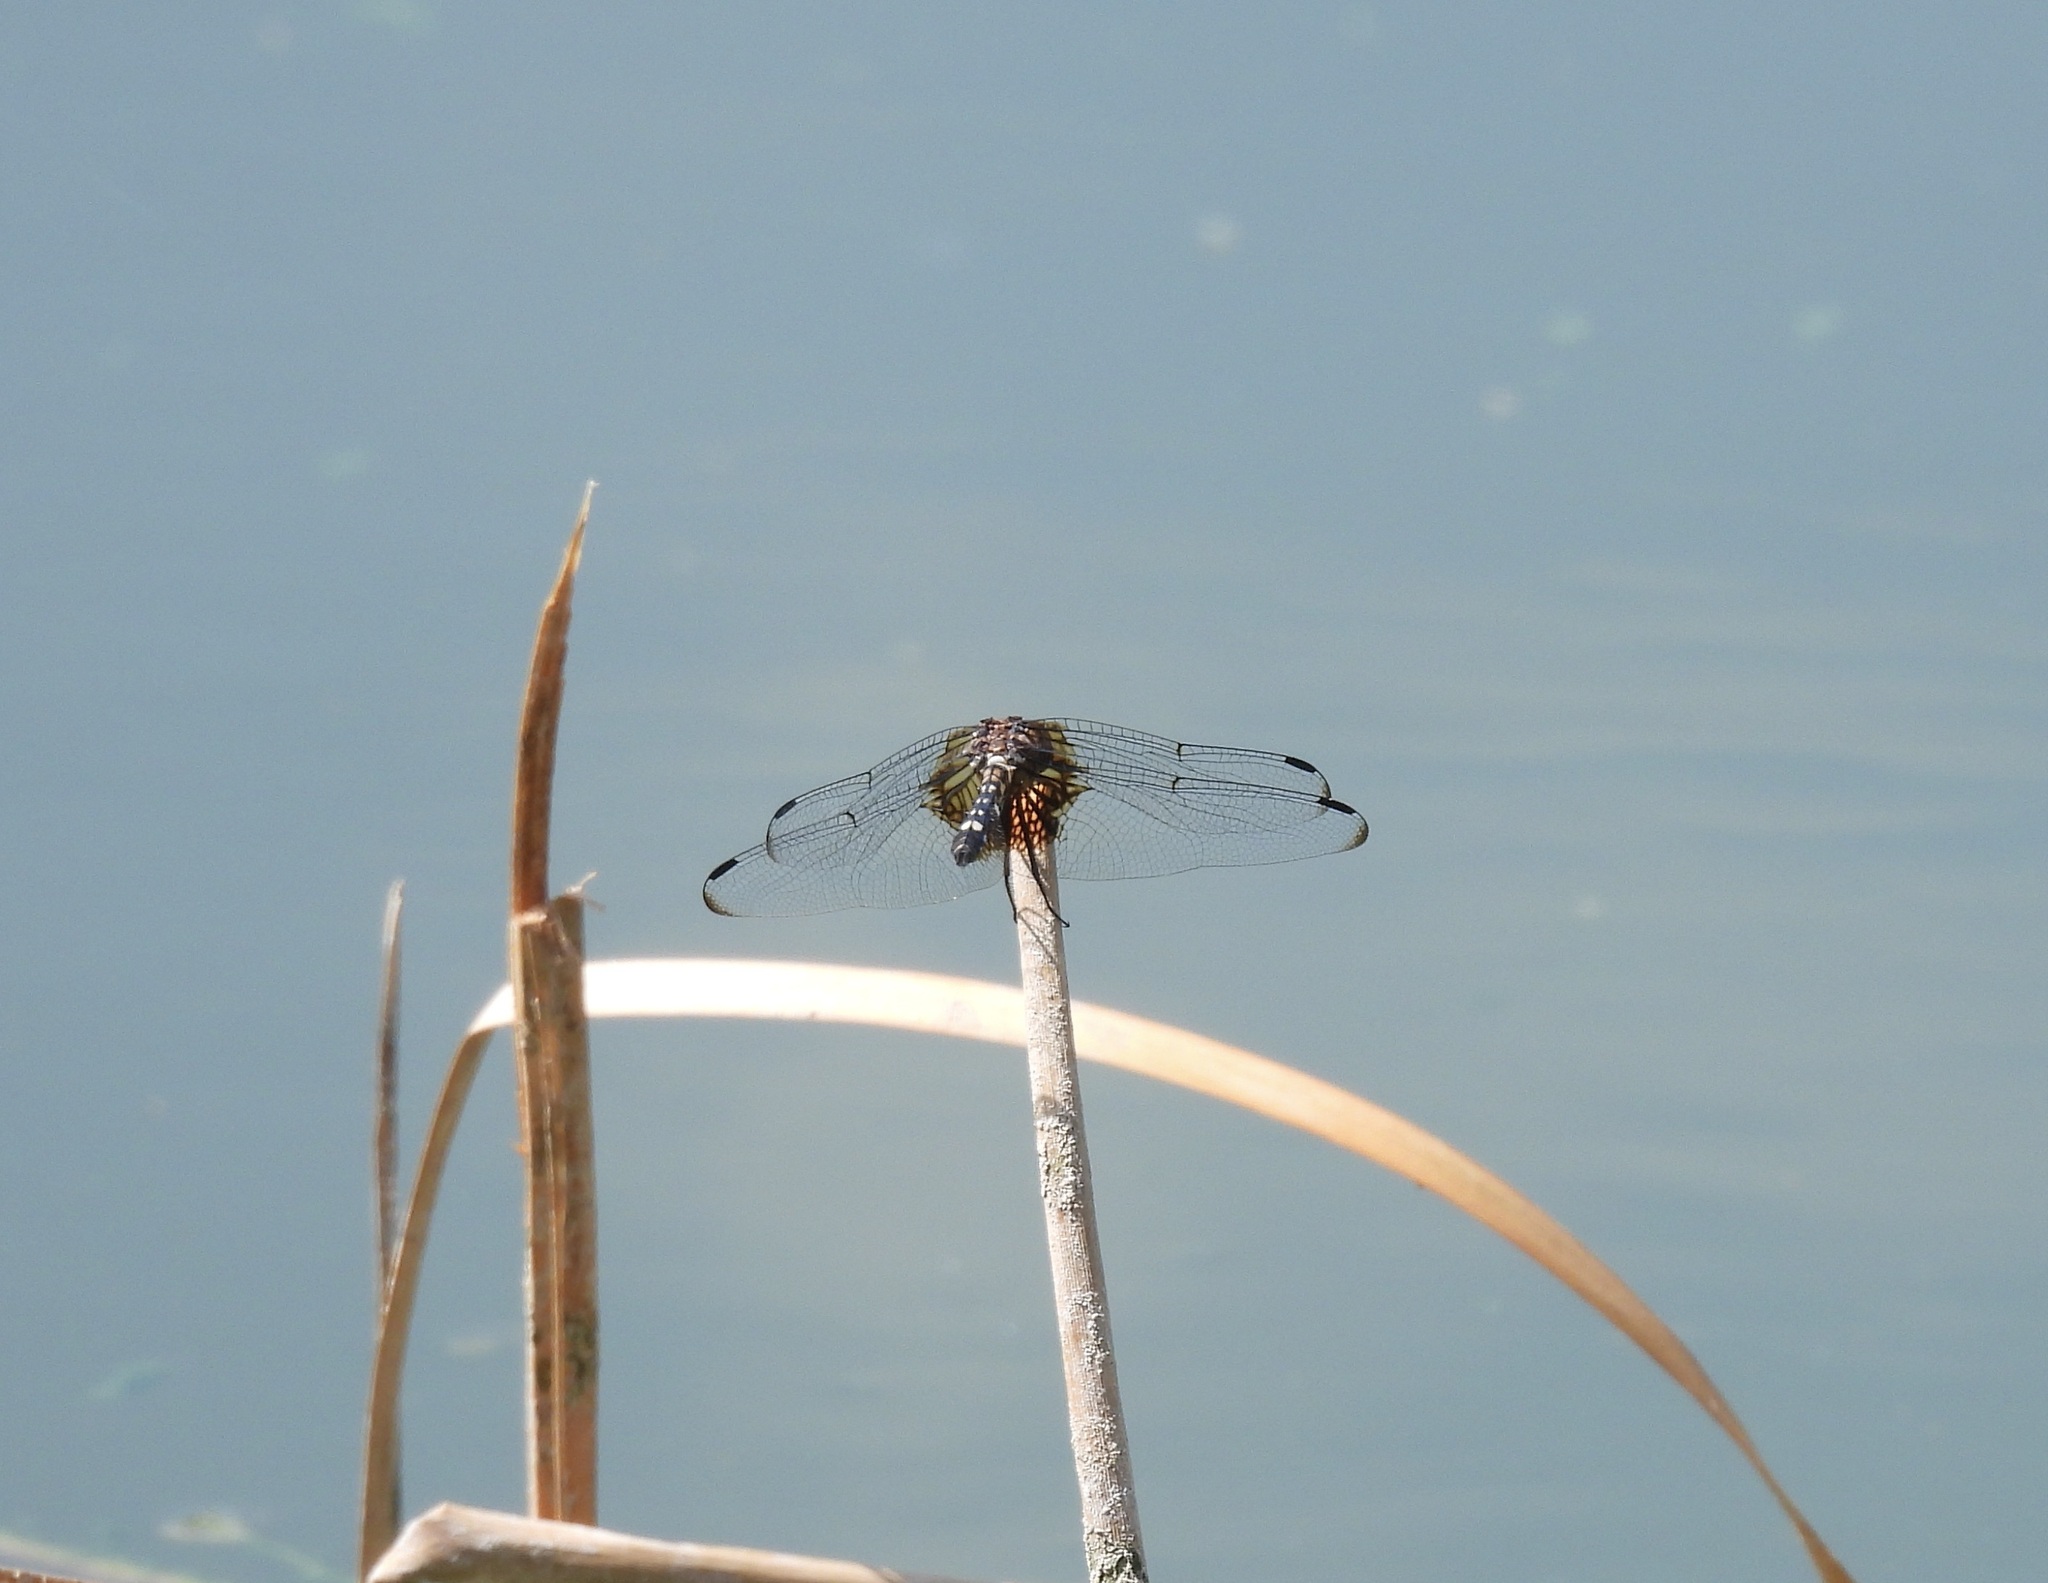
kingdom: Animalia
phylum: Arthropoda
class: Insecta
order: Odonata
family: Libellulidae
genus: Dythemis
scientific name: Dythemis fugax
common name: Checkered setwing
